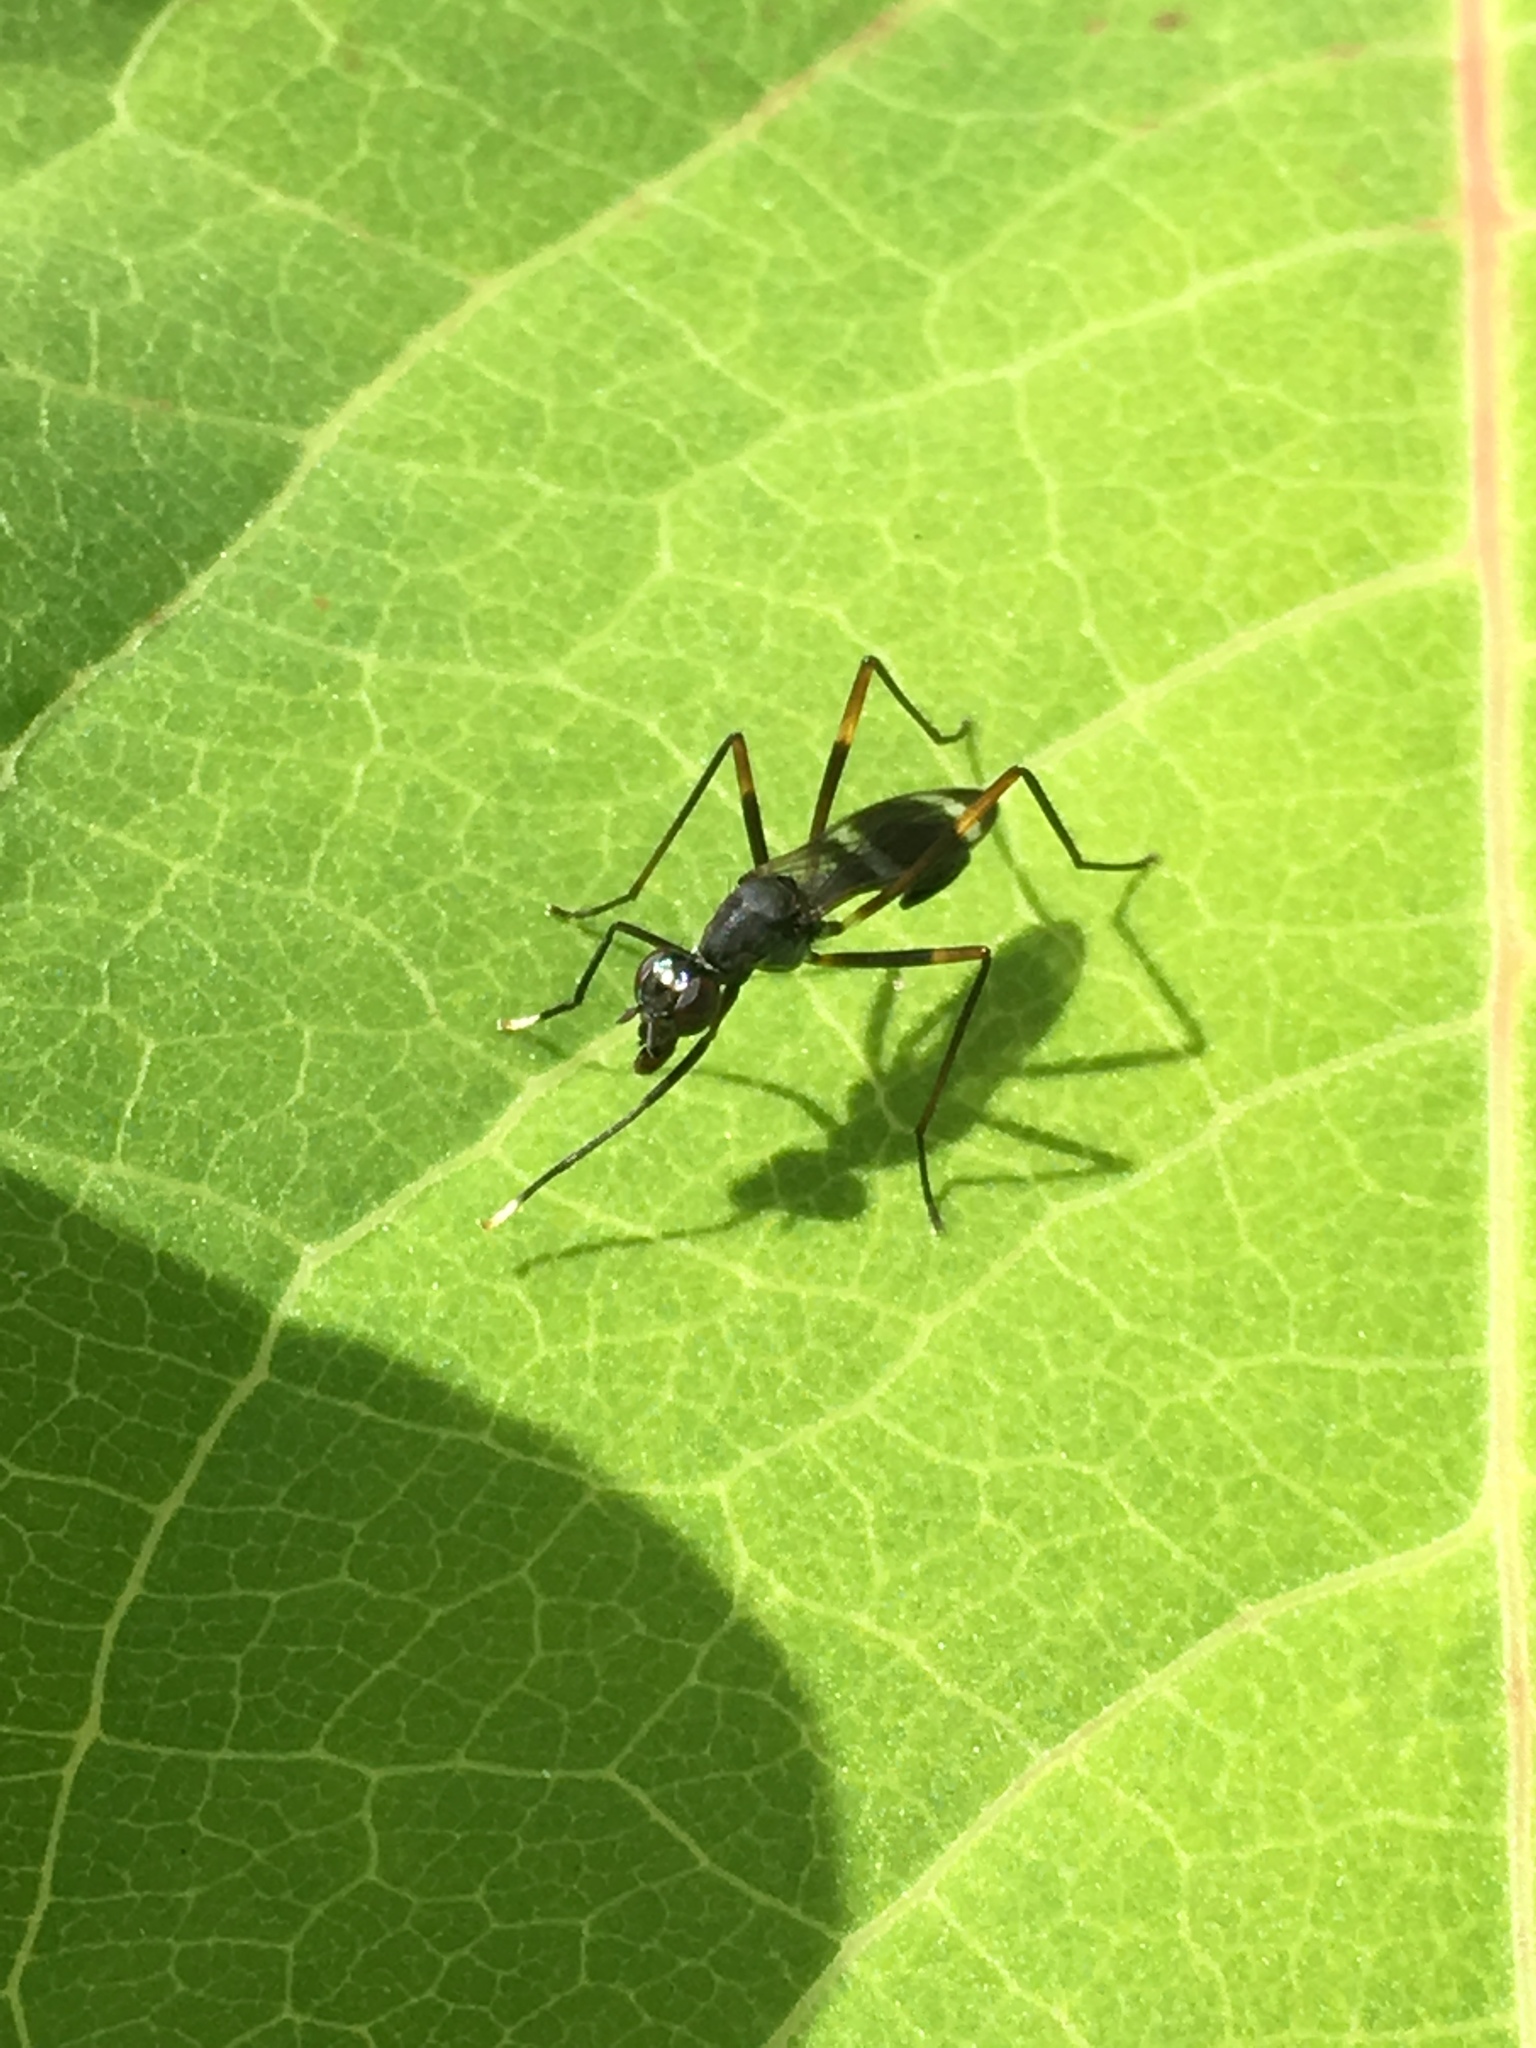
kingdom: Animalia
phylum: Arthropoda
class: Insecta
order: Diptera
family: Micropezidae
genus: Taeniaptera
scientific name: Taeniaptera trivittata
